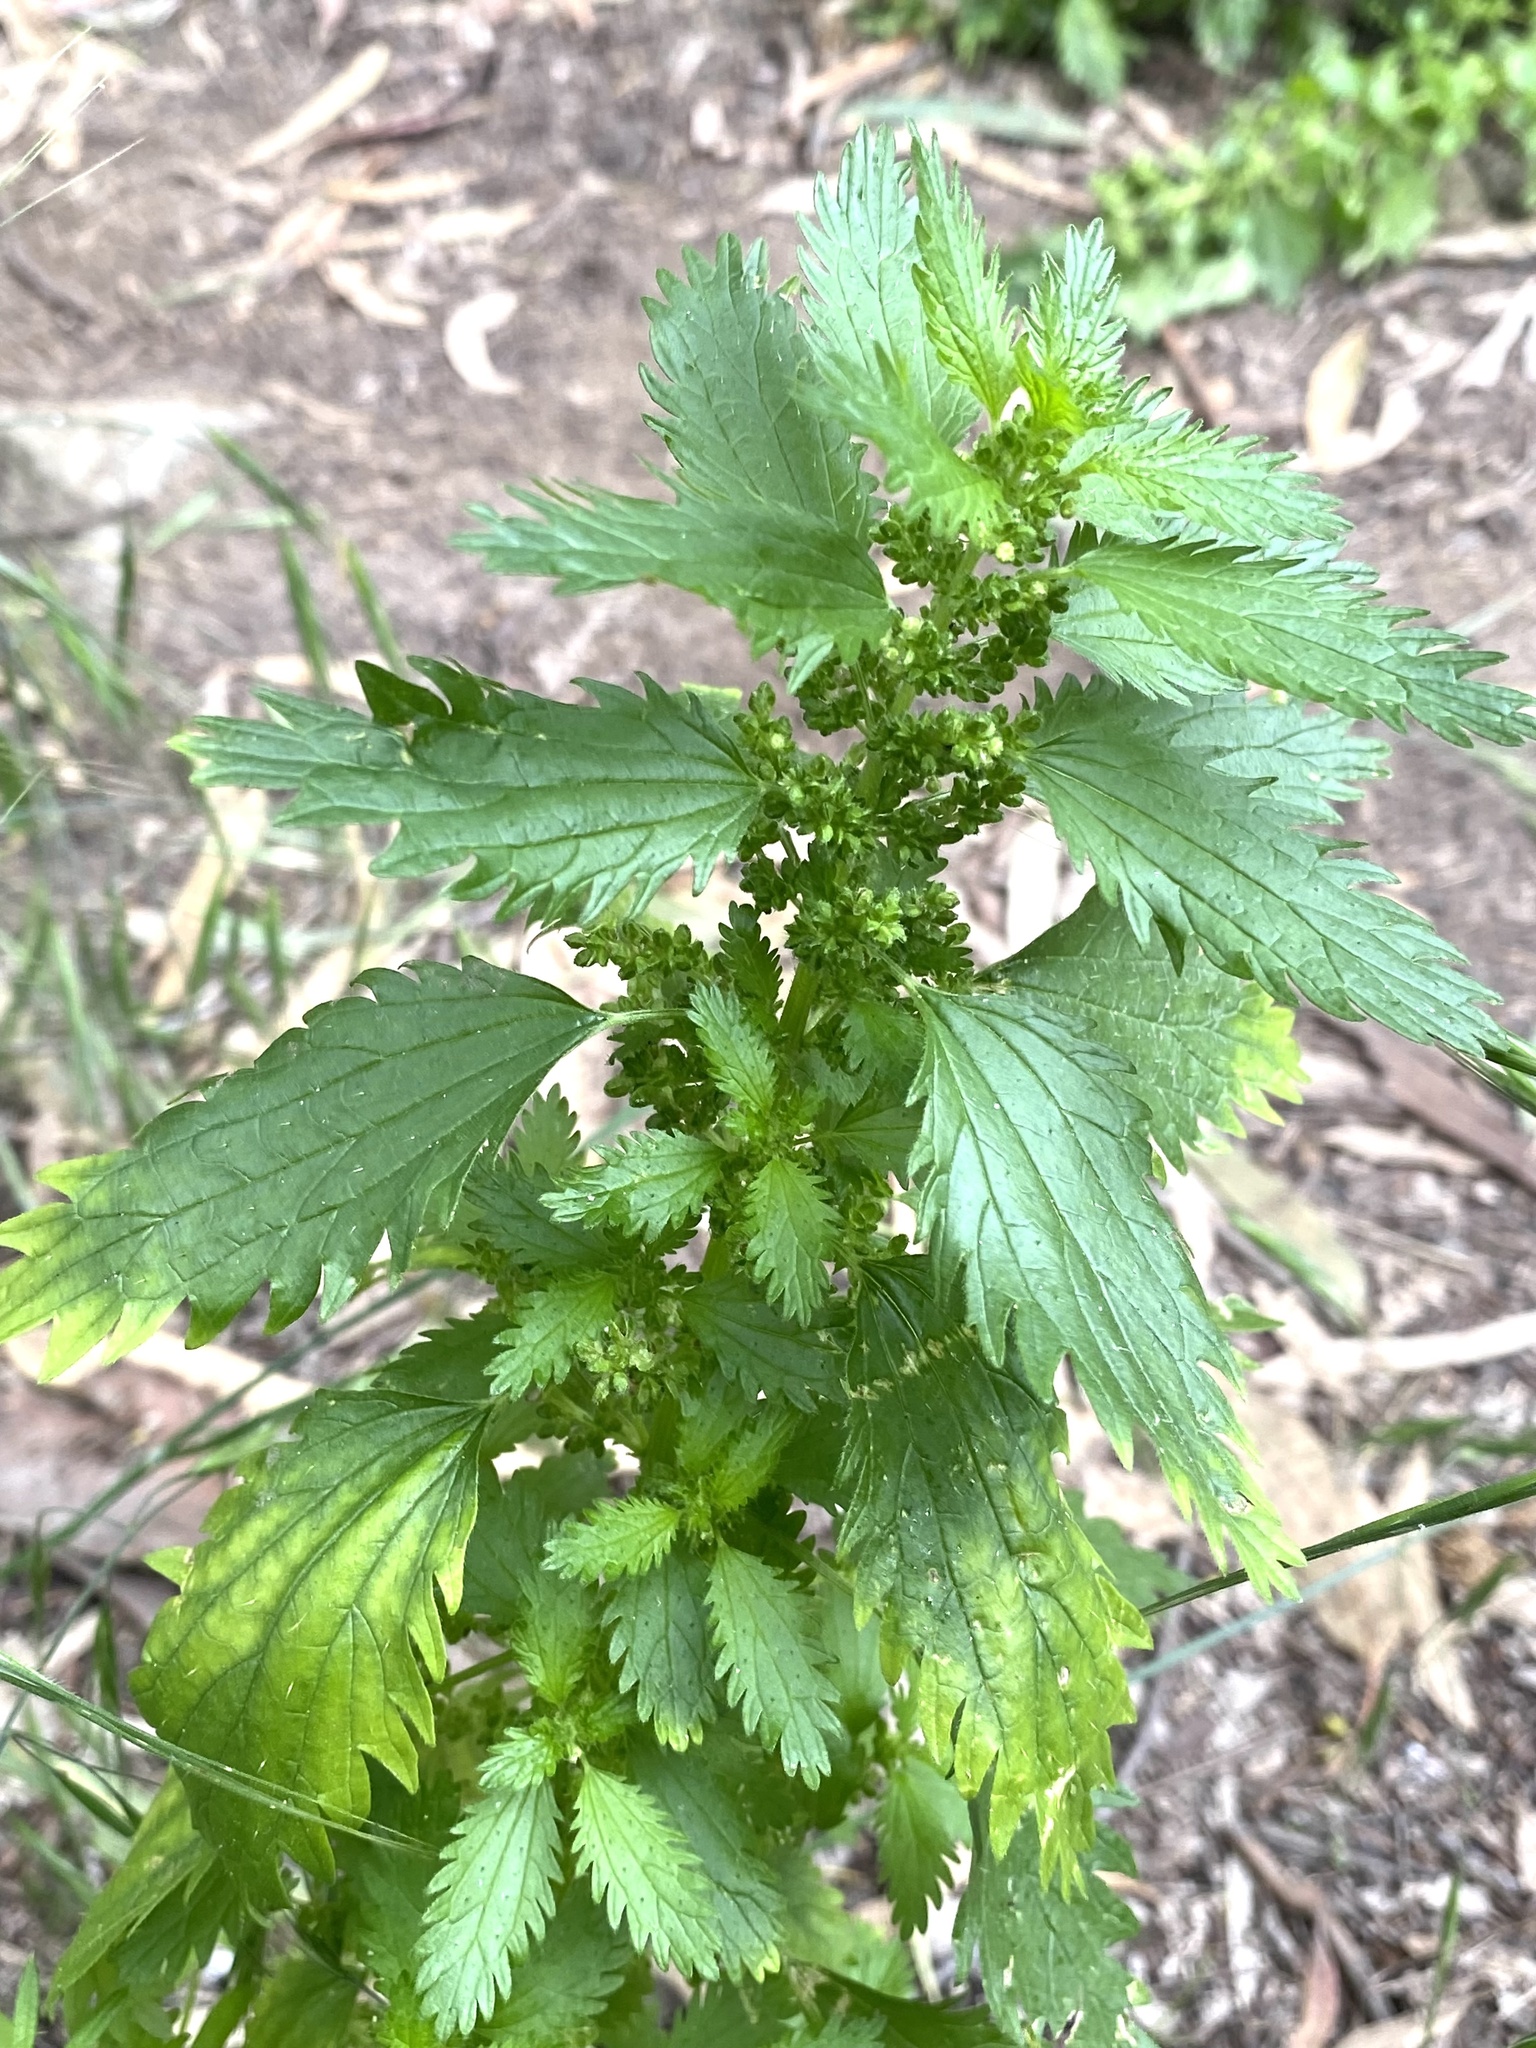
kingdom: Plantae
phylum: Tracheophyta
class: Magnoliopsida
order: Rosales
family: Urticaceae
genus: Urtica
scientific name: Urtica urens
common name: Dwarf nettle
